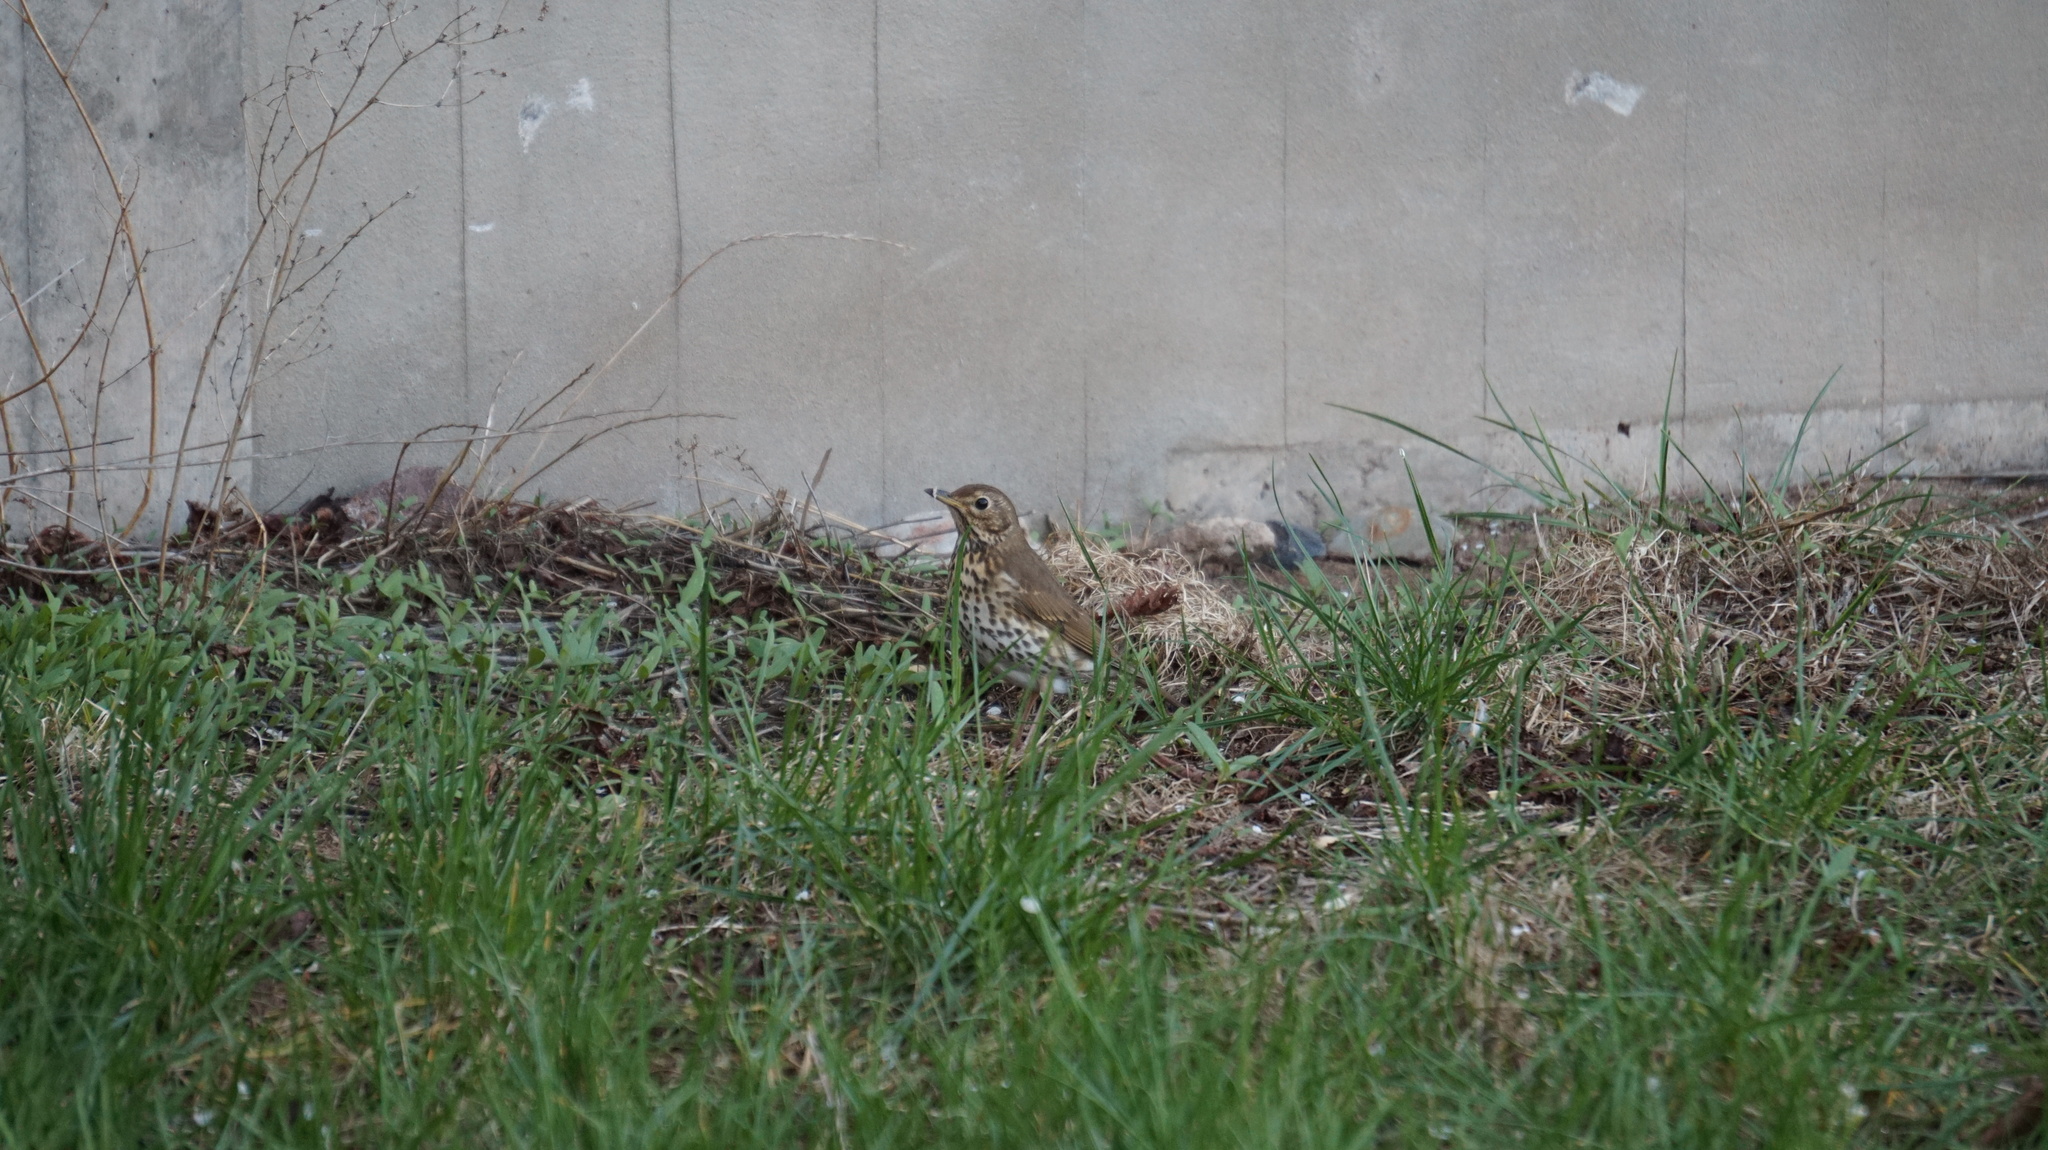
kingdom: Animalia
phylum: Chordata
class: Aves
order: Passeriformes
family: Turdidae
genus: Turdus
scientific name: Turdus philomelos
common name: Song thrush
